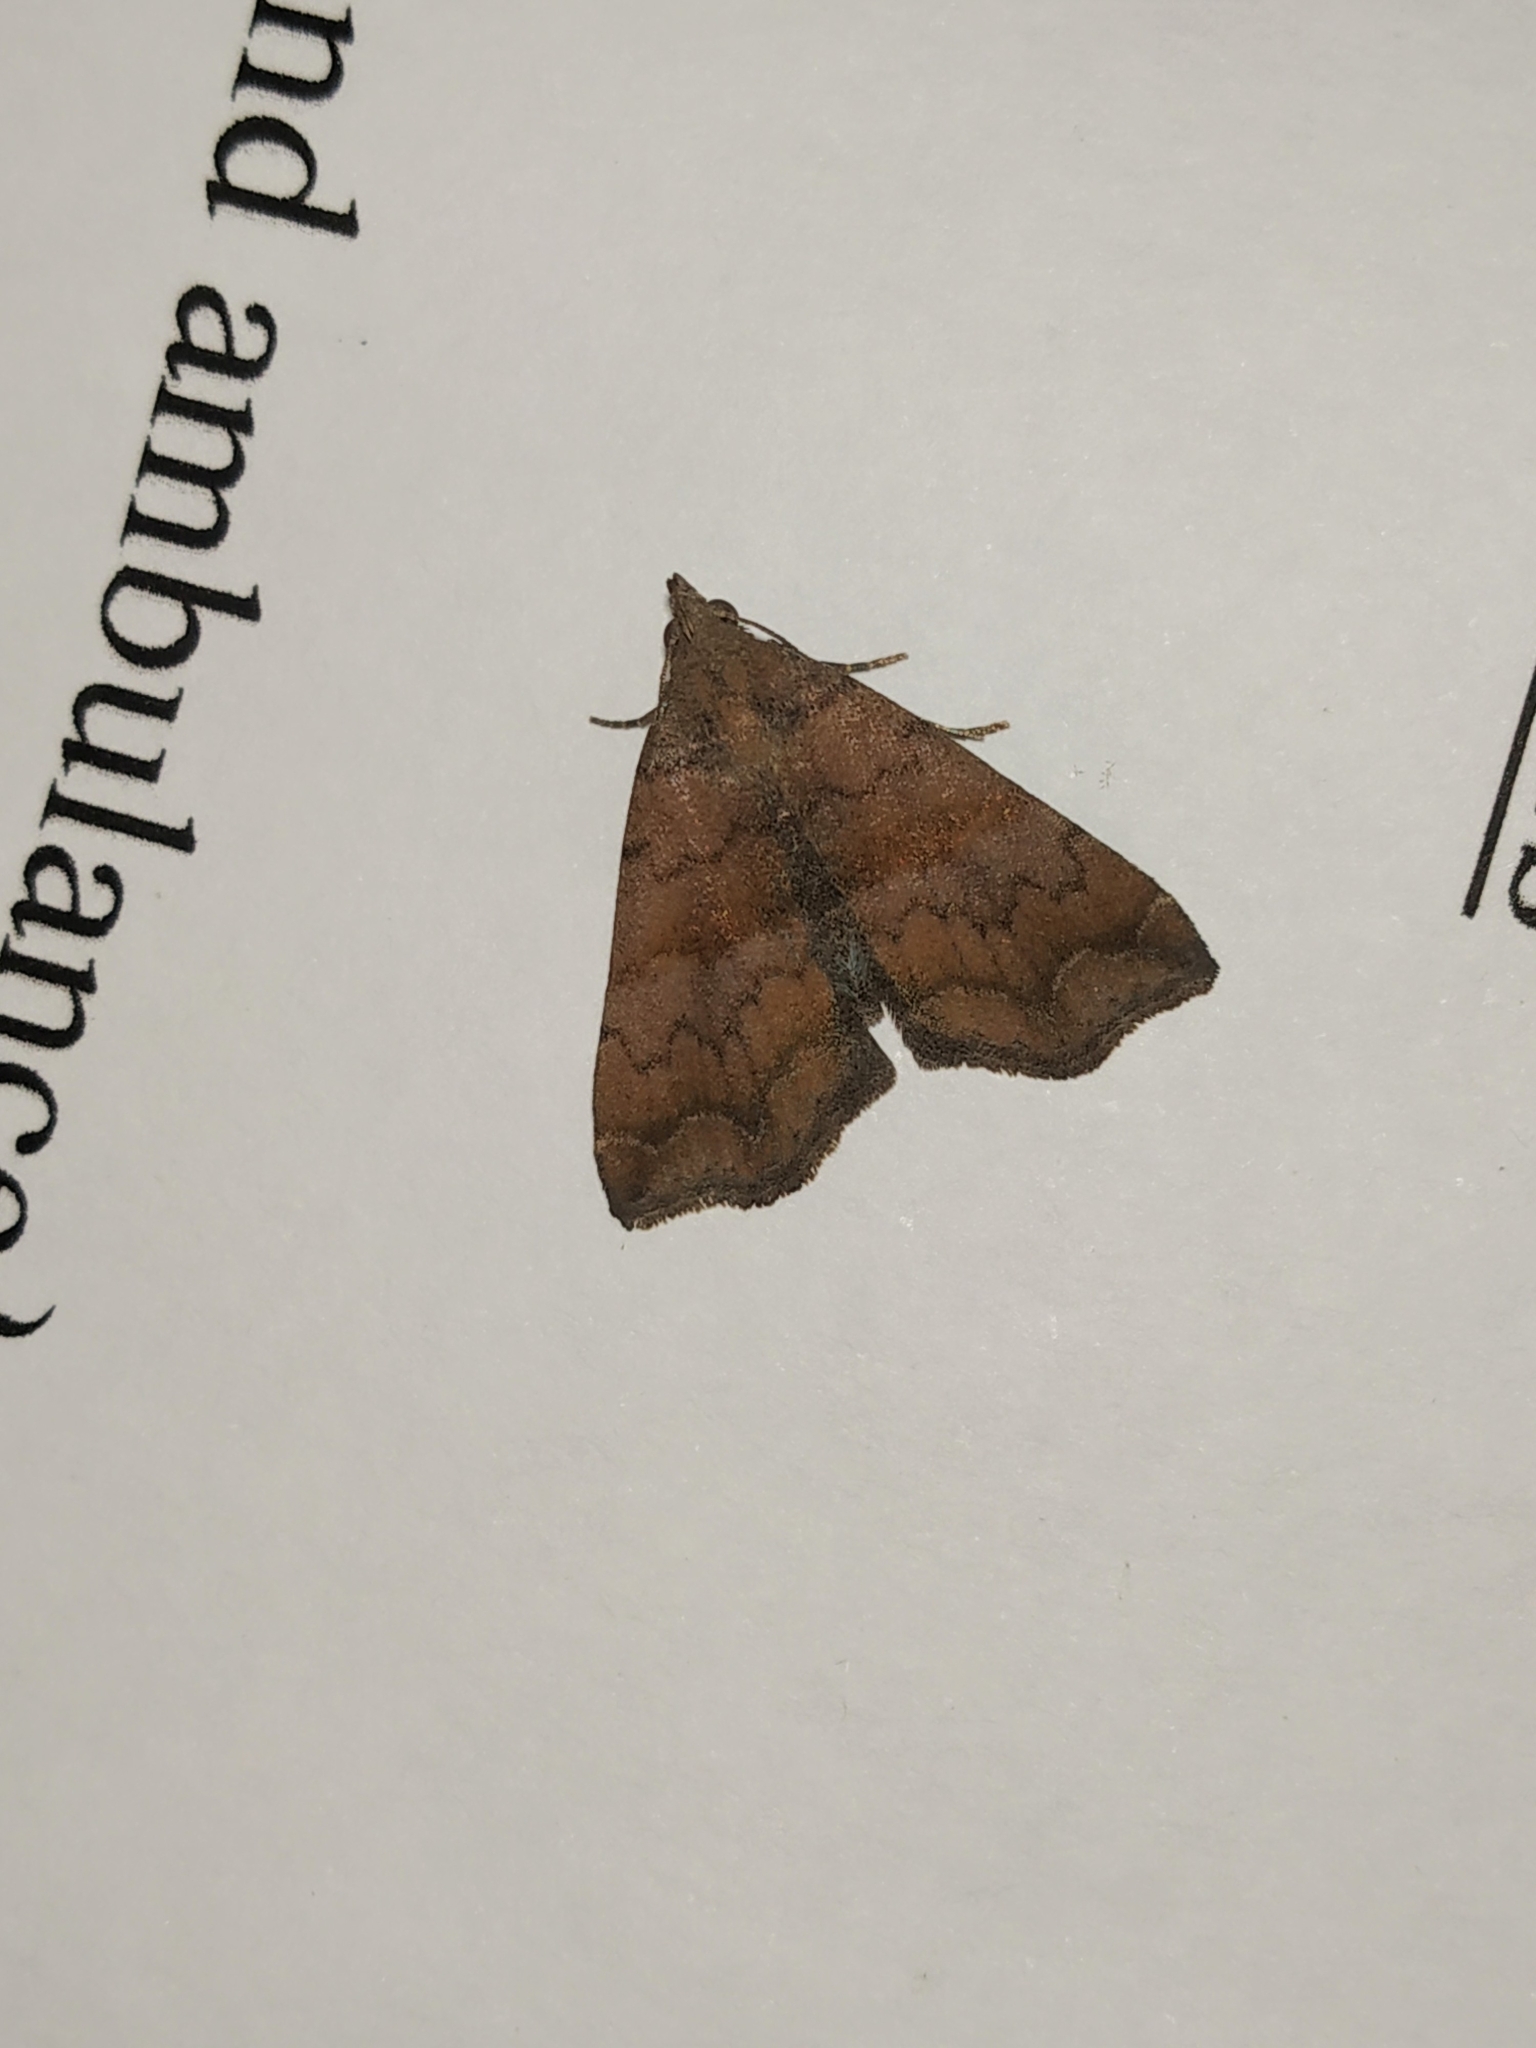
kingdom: Animalia
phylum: Arthropoda
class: Insecta
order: Lepidoptera
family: Erebidae
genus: Polypogon
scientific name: Polypogon Hipoepa fractalis
